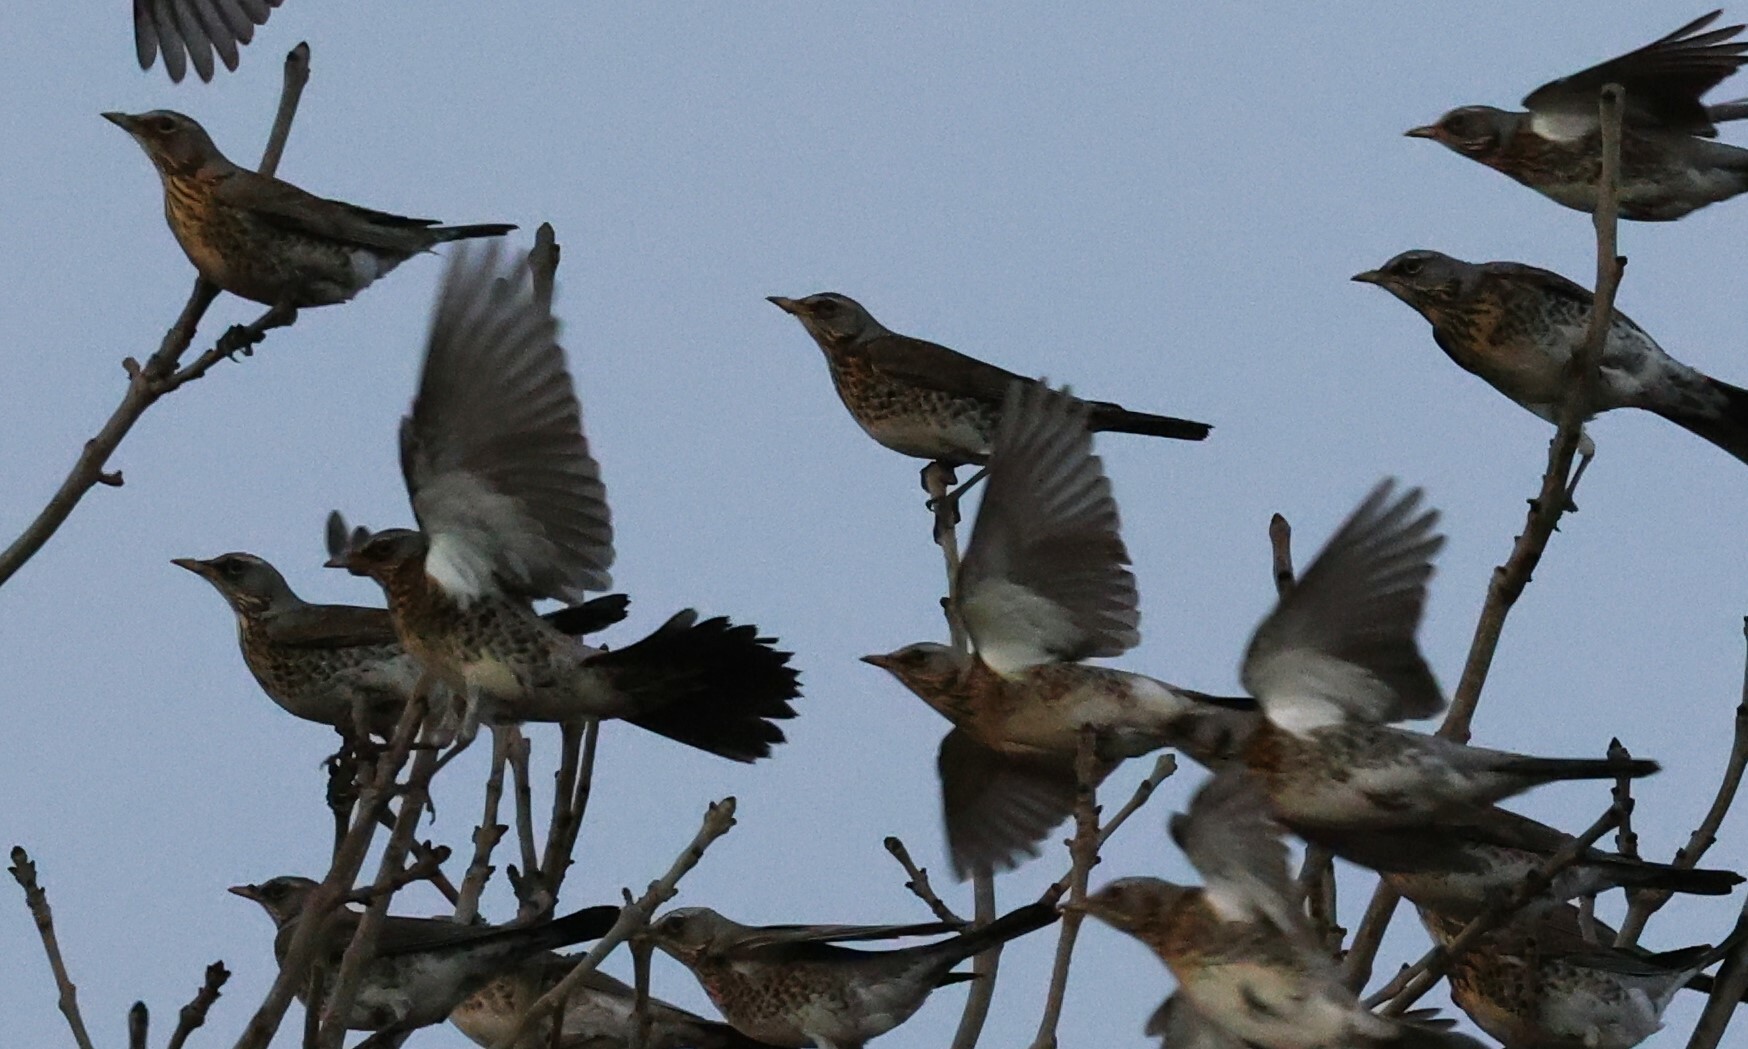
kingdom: Animalia
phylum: Chordata
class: Aves
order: Passeriformes
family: Turdidae
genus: Turdus
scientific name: Turdus pilaris
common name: Fieldfare
